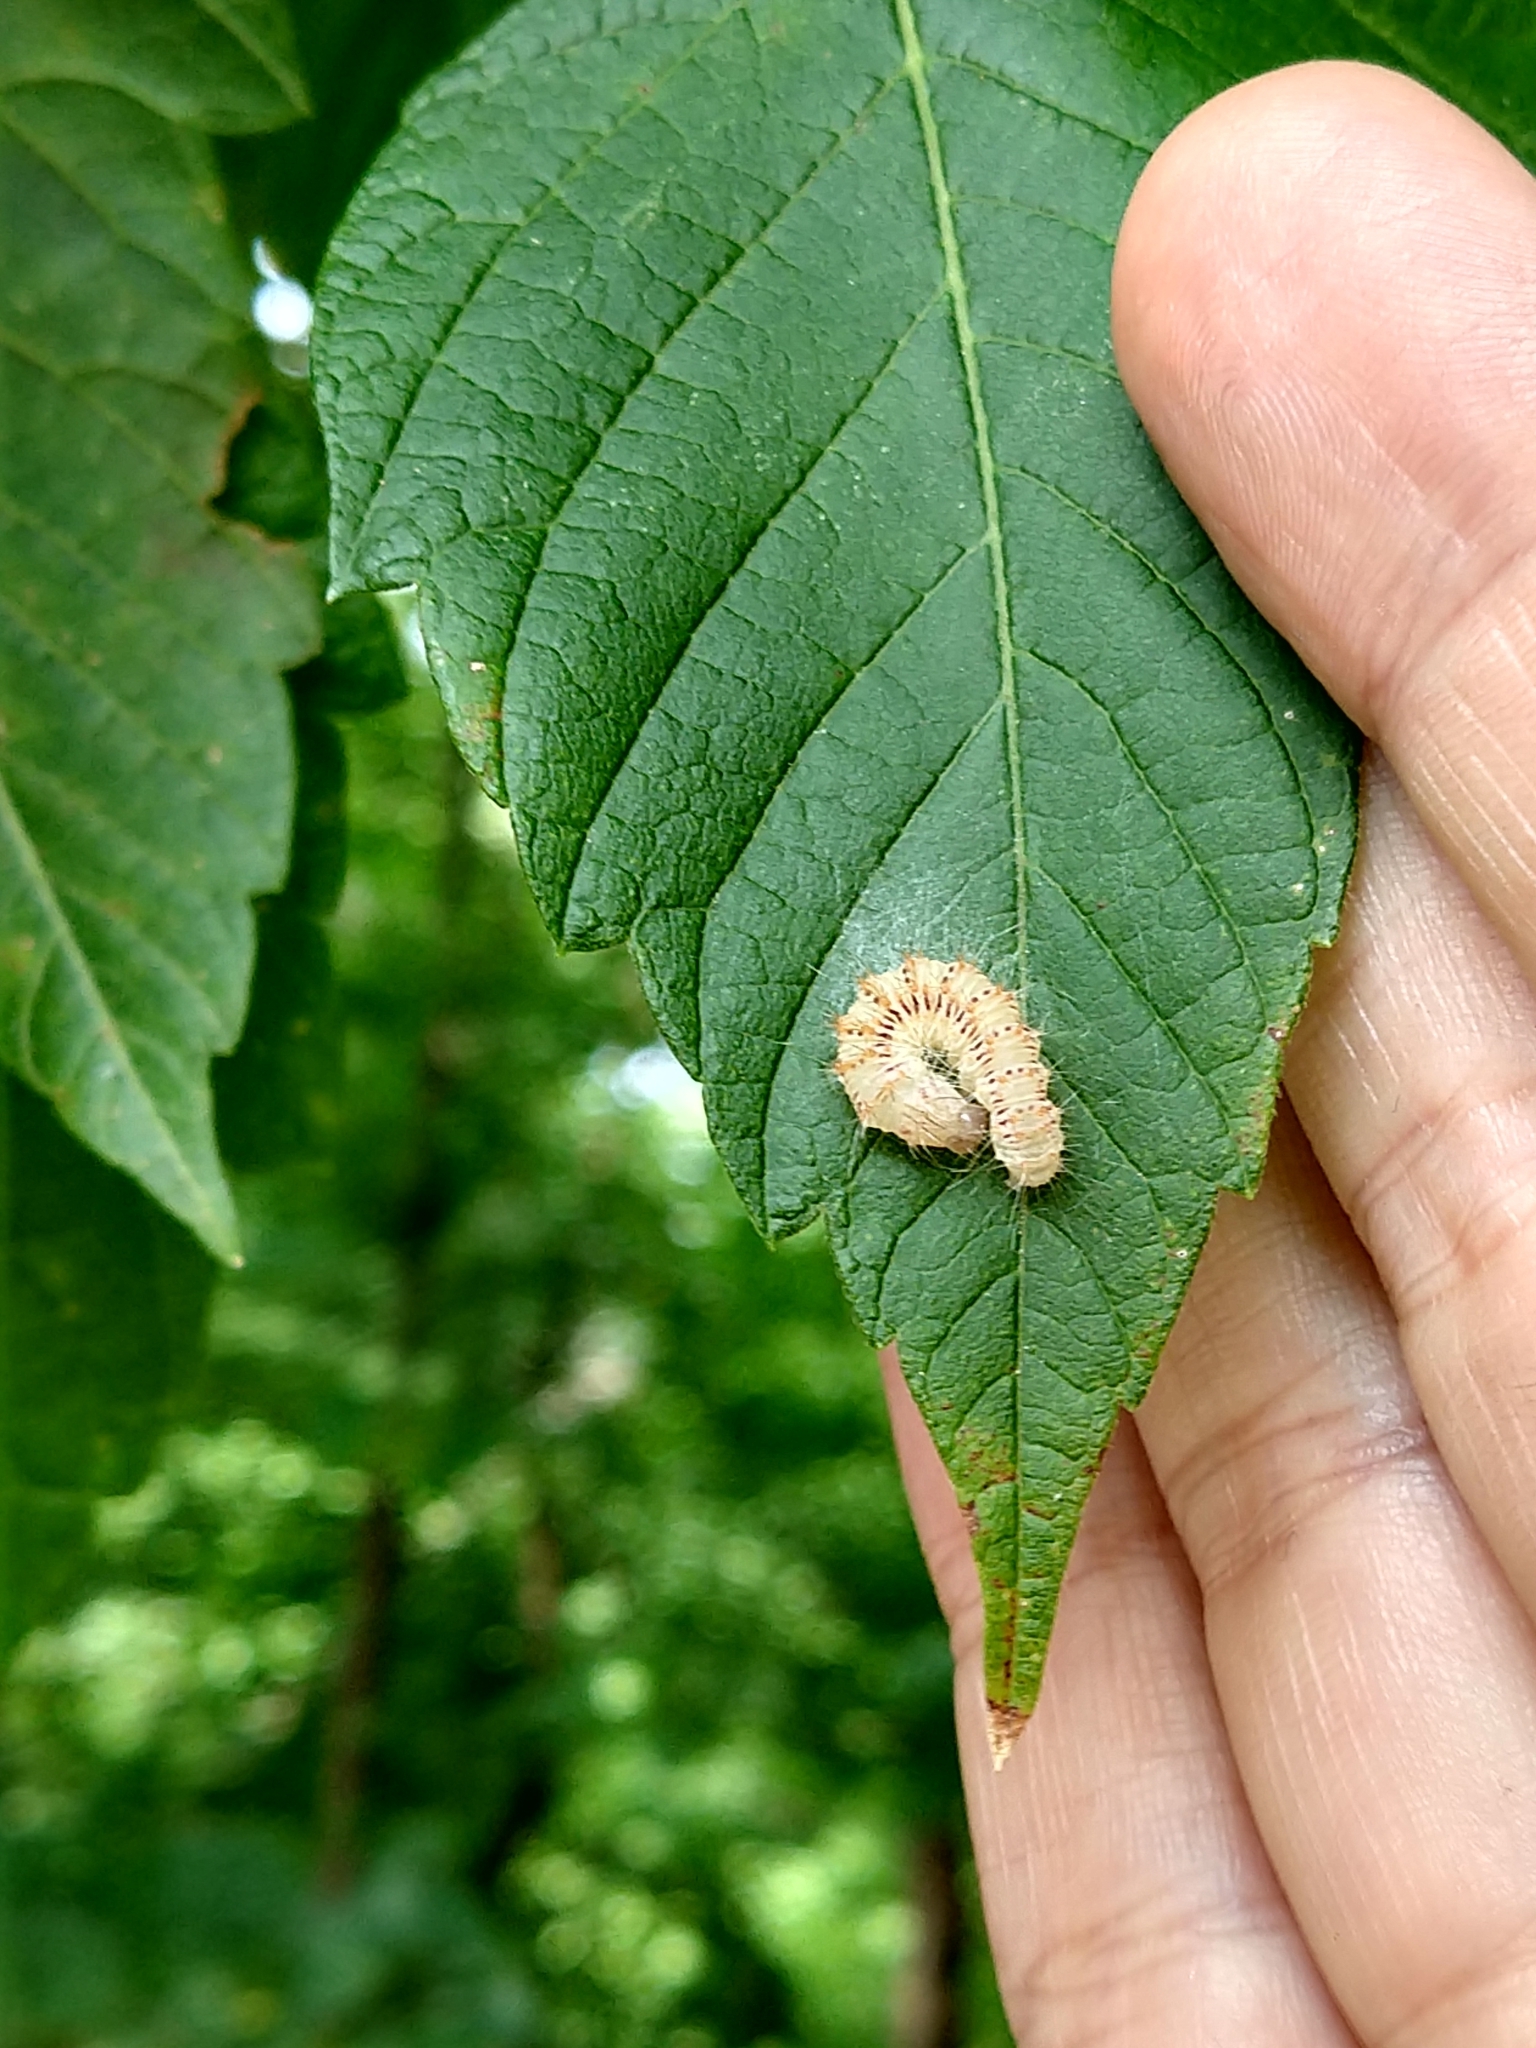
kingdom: Animalia
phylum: Arthropoda
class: Insecta
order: Lepidoptera
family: Noctuidae
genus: Acronicta
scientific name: Acronicta retardata
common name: Maple dagger
